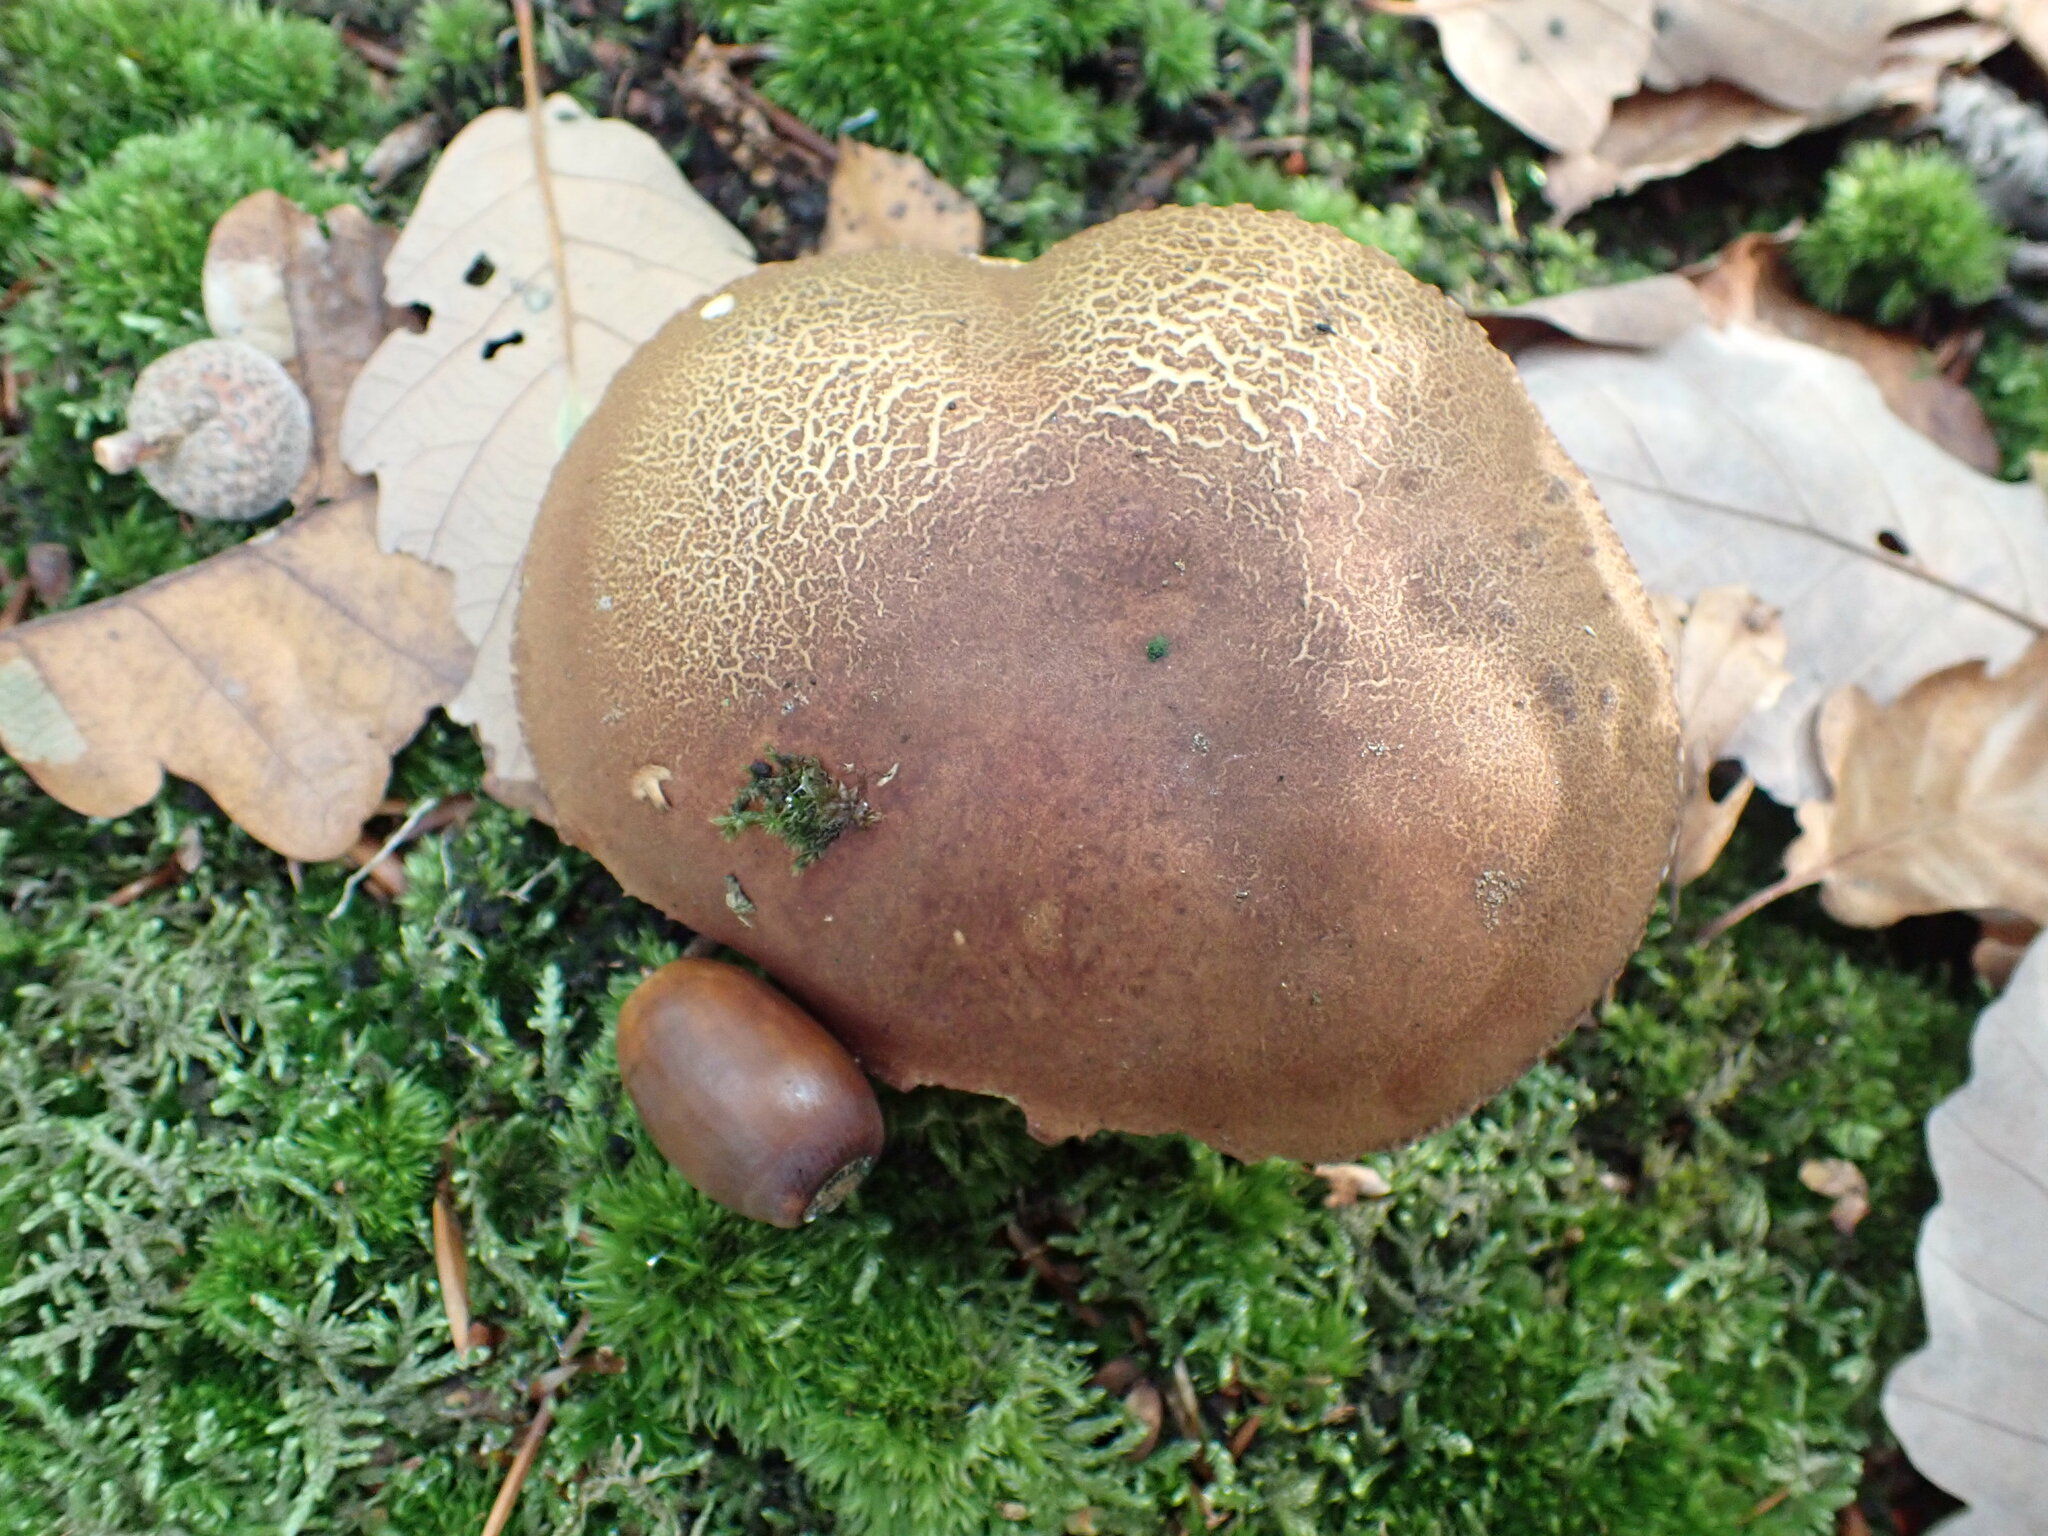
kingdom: Fungi
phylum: Basidiomycota
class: Agaricomycetes
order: Boletales
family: Boletaceae
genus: Imleria
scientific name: Imleria badia
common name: Bay bolete
